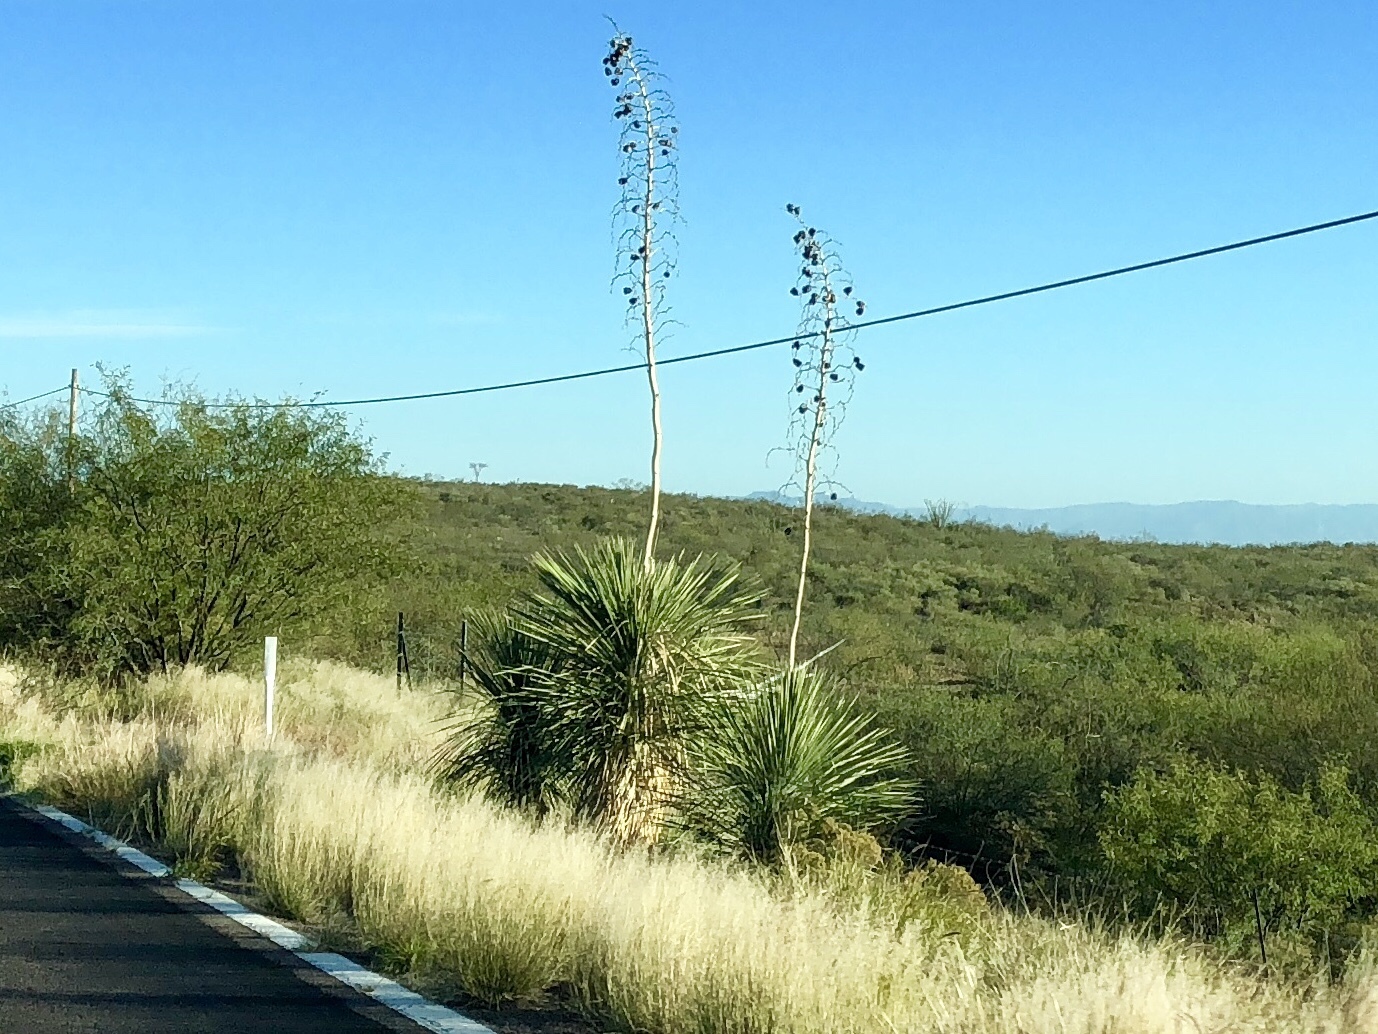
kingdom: Plantae
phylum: Tracheophyta
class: Liliopsida
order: Asparagales
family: Asparagaceae
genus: Yucca
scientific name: Yucca elata
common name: Palmella
